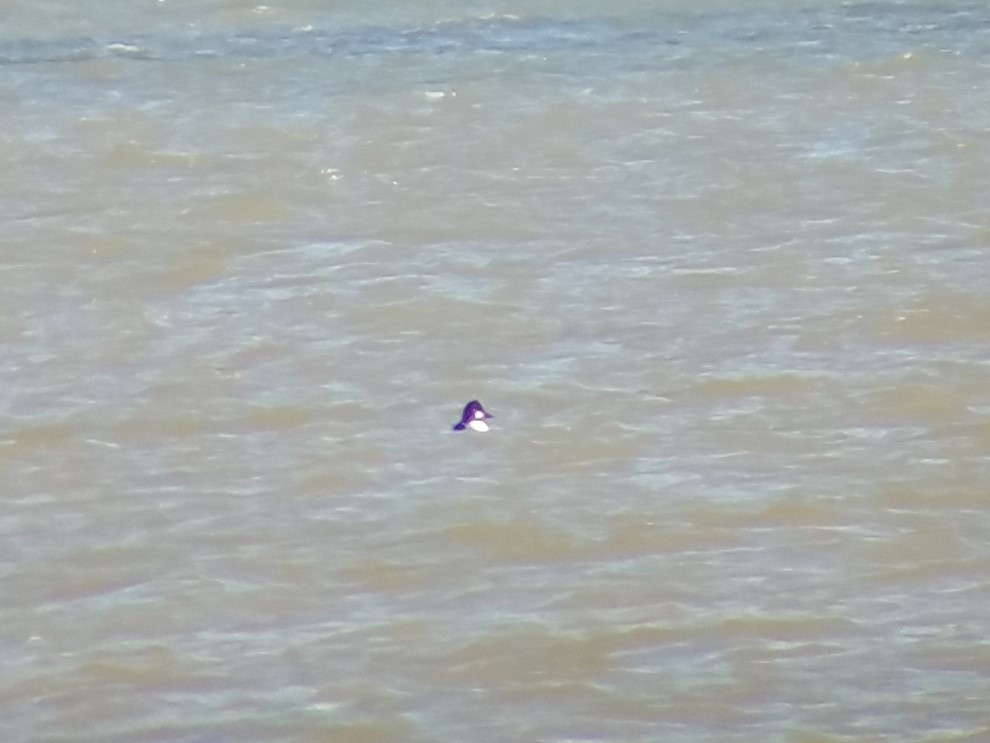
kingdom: Animalia
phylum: Chordata
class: Aves
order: Anseriformes
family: Anatidae
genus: Bucephala
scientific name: Bucephala clangula
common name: Common goldeneye
